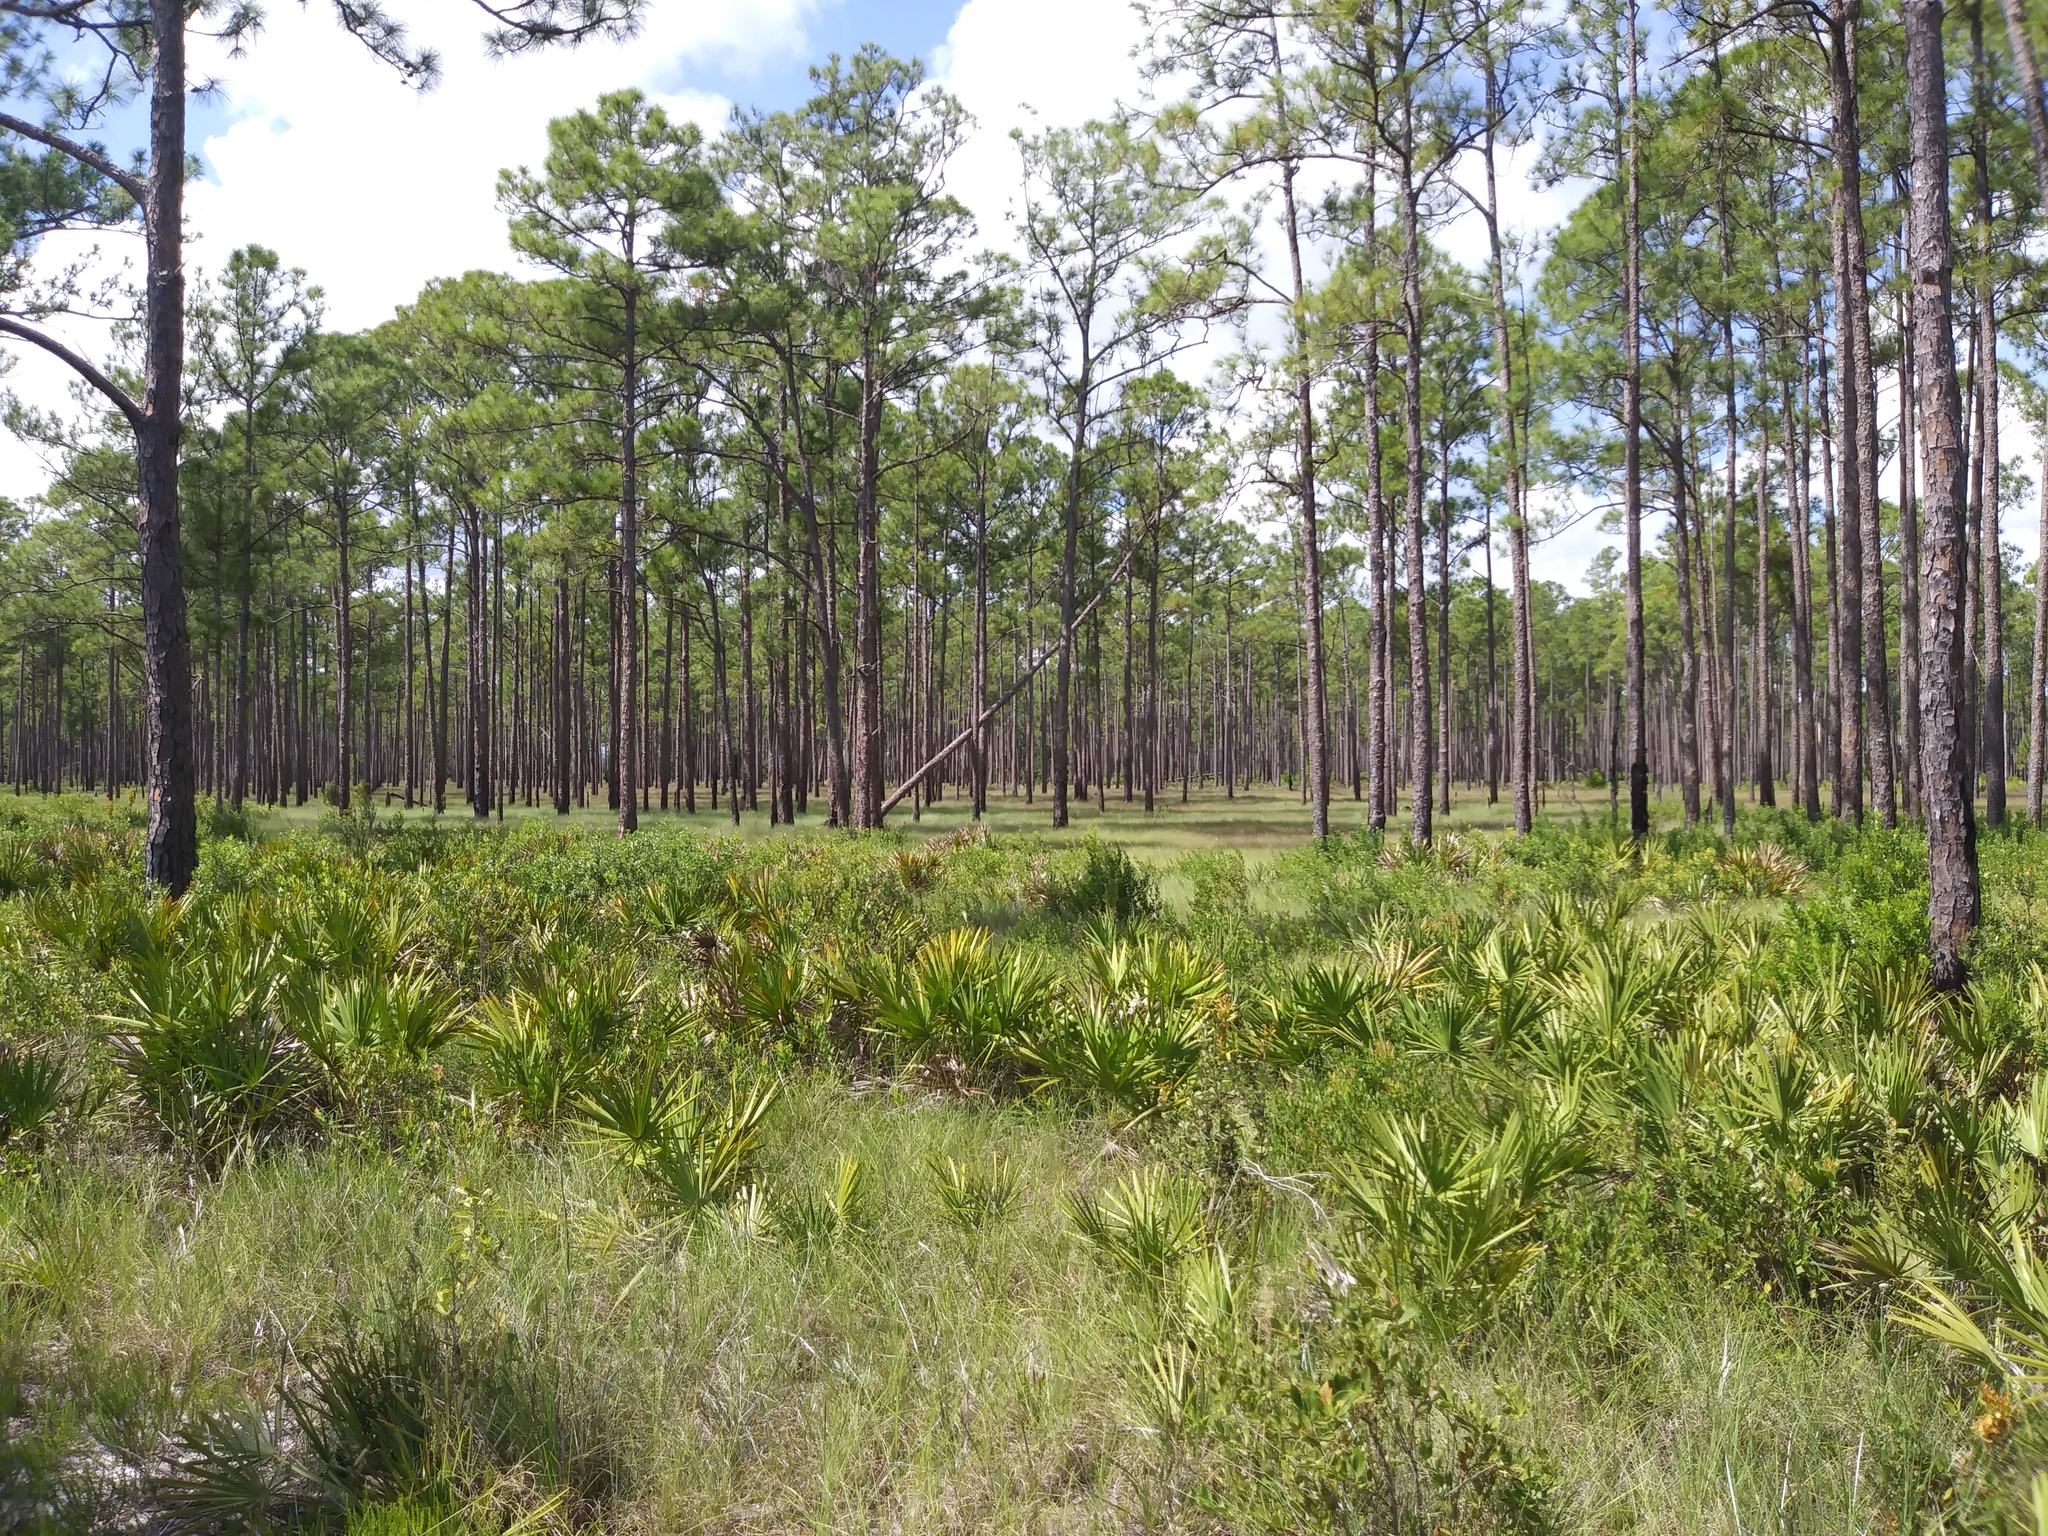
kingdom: Plantae
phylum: Tracheophyta
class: Liliopsida
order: Arecales
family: Arecaceae
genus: Serenoa
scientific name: Serenoa repens
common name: Saw-palmetto
